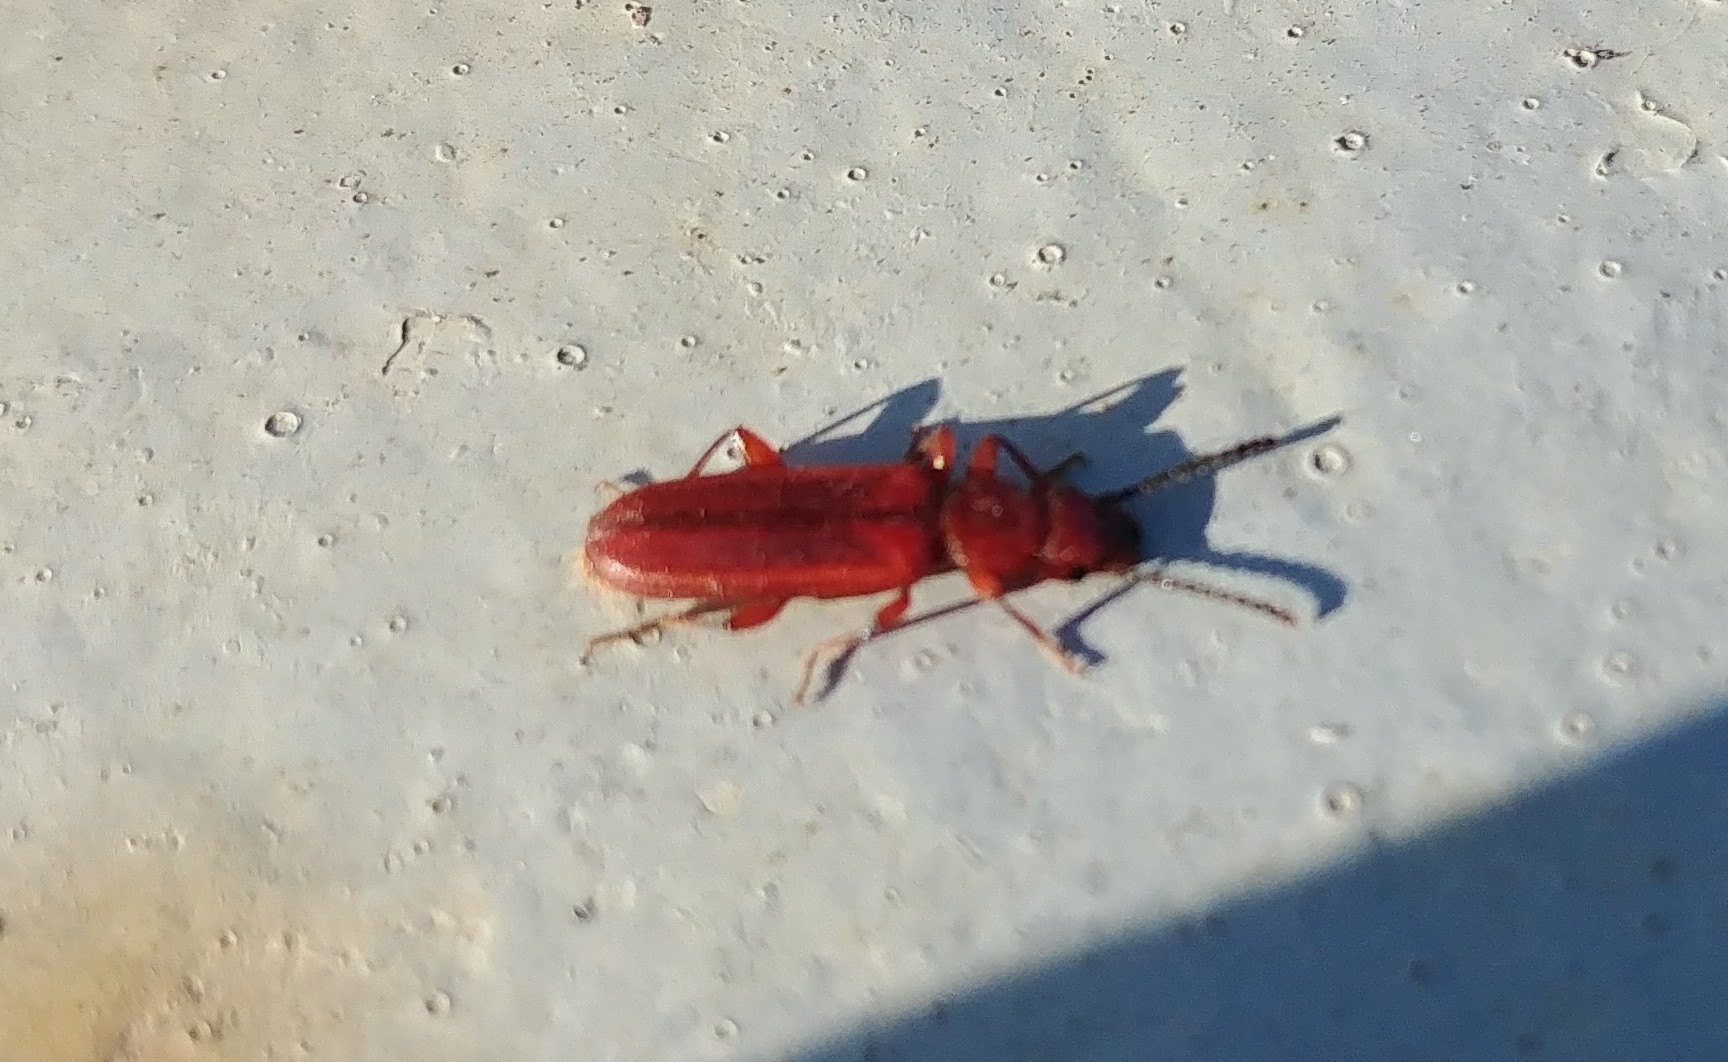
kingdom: Animalia
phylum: Arthropoda
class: Insecta
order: Coleoptera
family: Cucujidae
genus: Cucujus
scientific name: Cucujus clavipes
